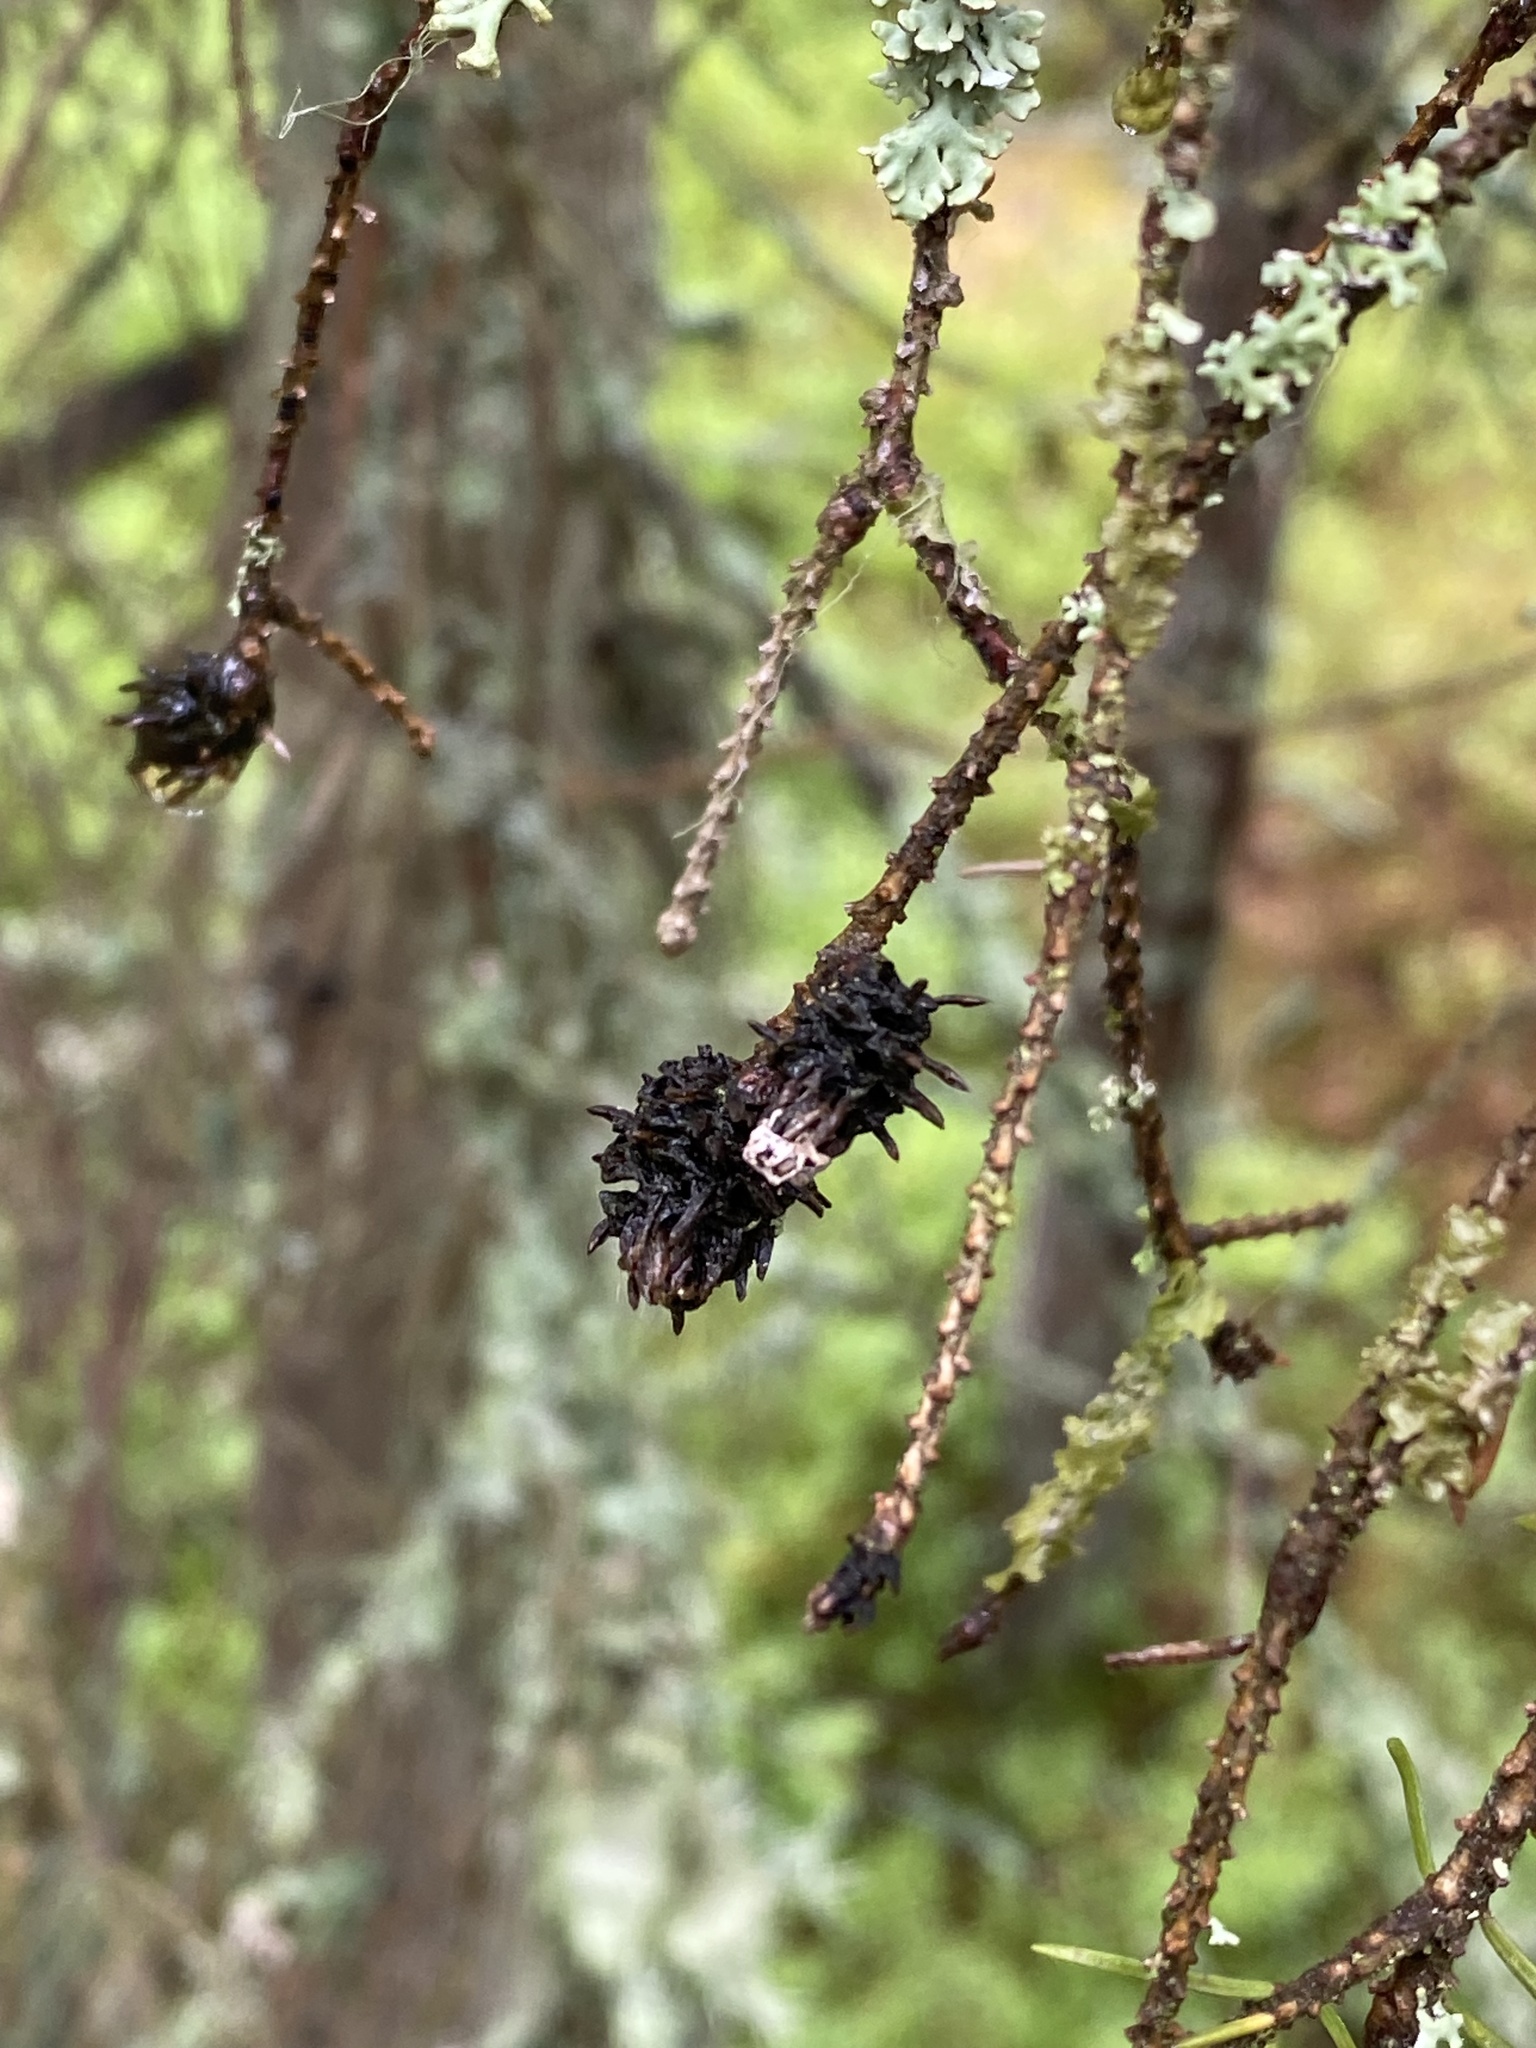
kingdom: Animalia
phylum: Arthropoda
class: Insecta
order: Hemiptera
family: Adelgidae
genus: Adelges
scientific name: Adelges abietis
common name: Eastern spruce gall adelgid
